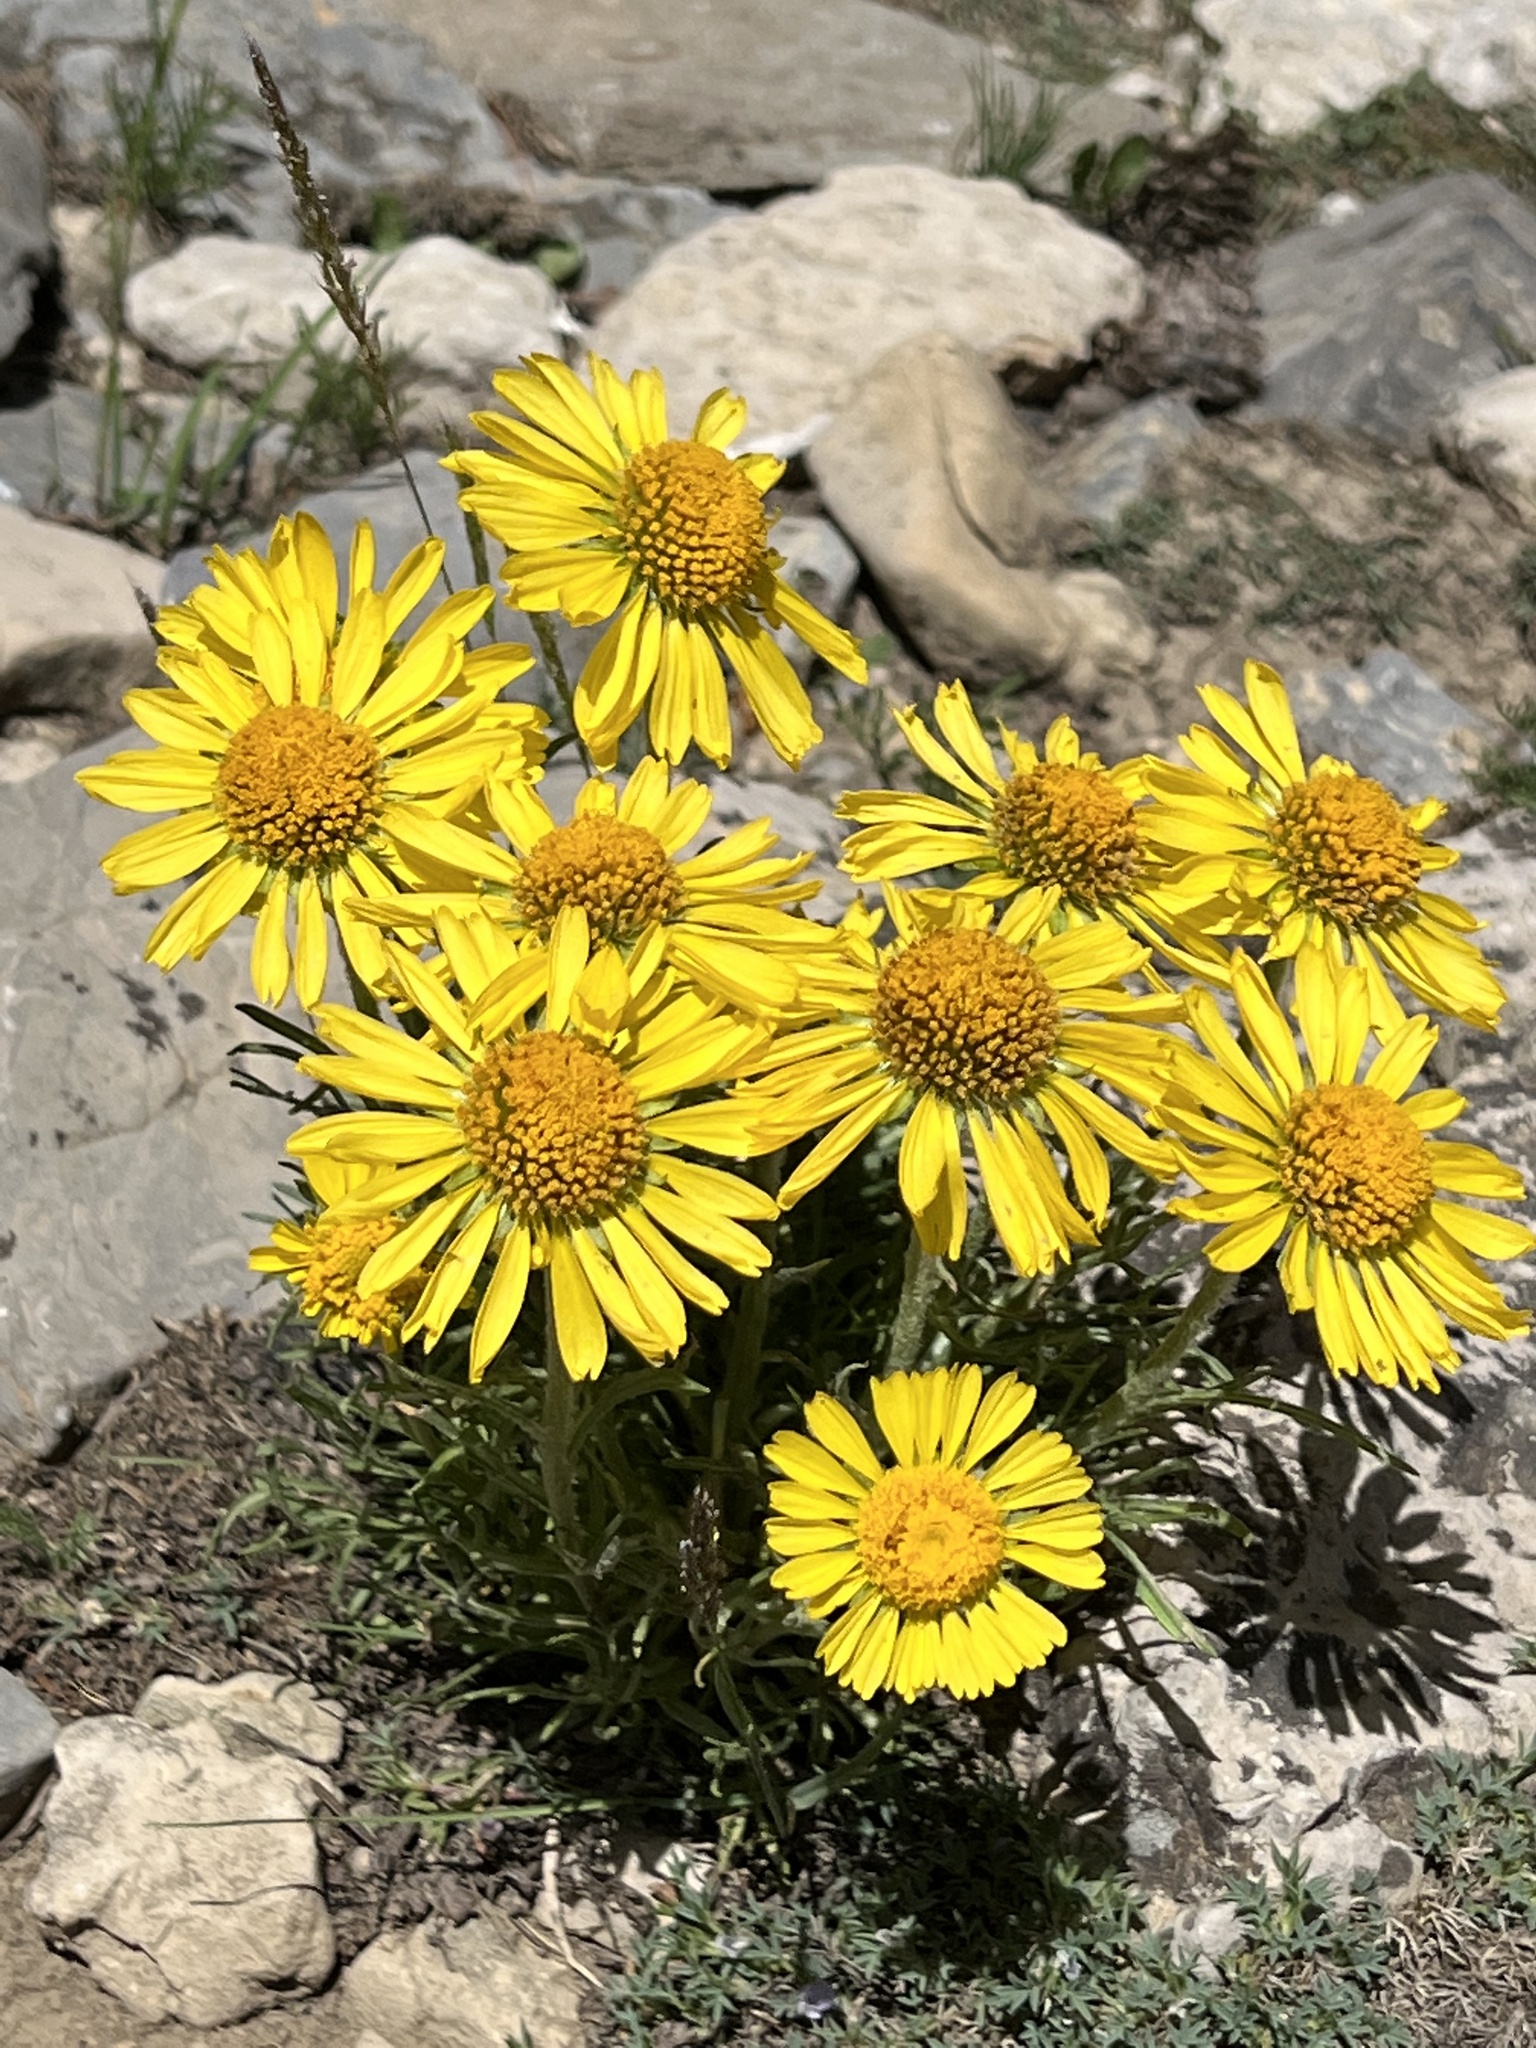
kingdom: Plantae
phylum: Tracheophyta
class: Magnoliopsida
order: Asterales
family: Asteraceae
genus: Hymenoxys
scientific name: Hymenoxys grandiflora
